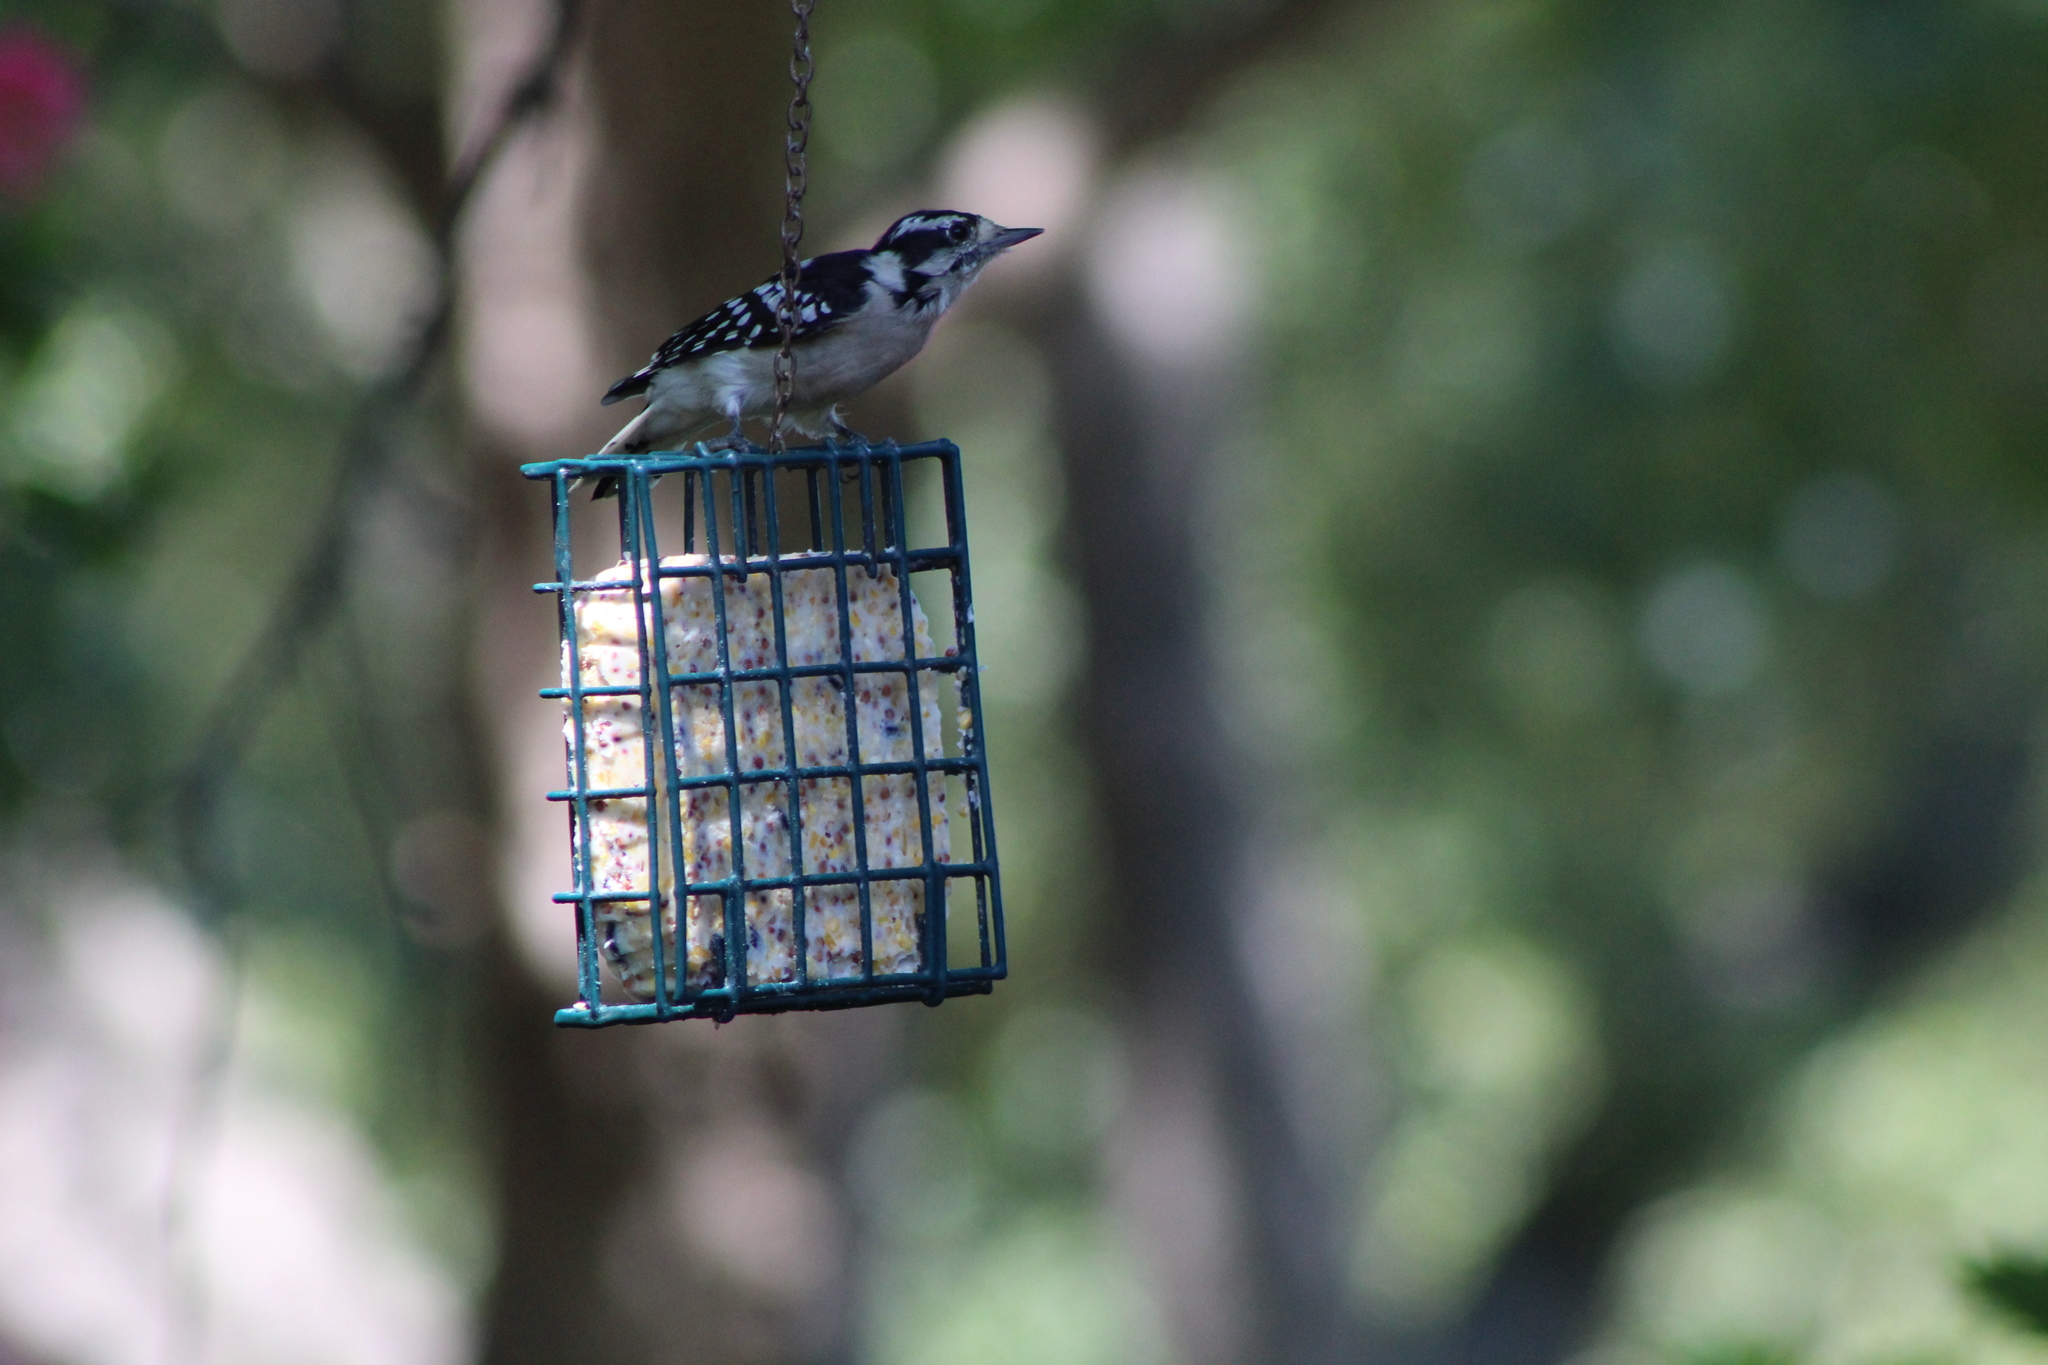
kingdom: Animalia
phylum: Chordata
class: Aves
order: Piciformes
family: Picidae
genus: Dryobates
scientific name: Dryobates pubescens
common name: Downy woodpecker
